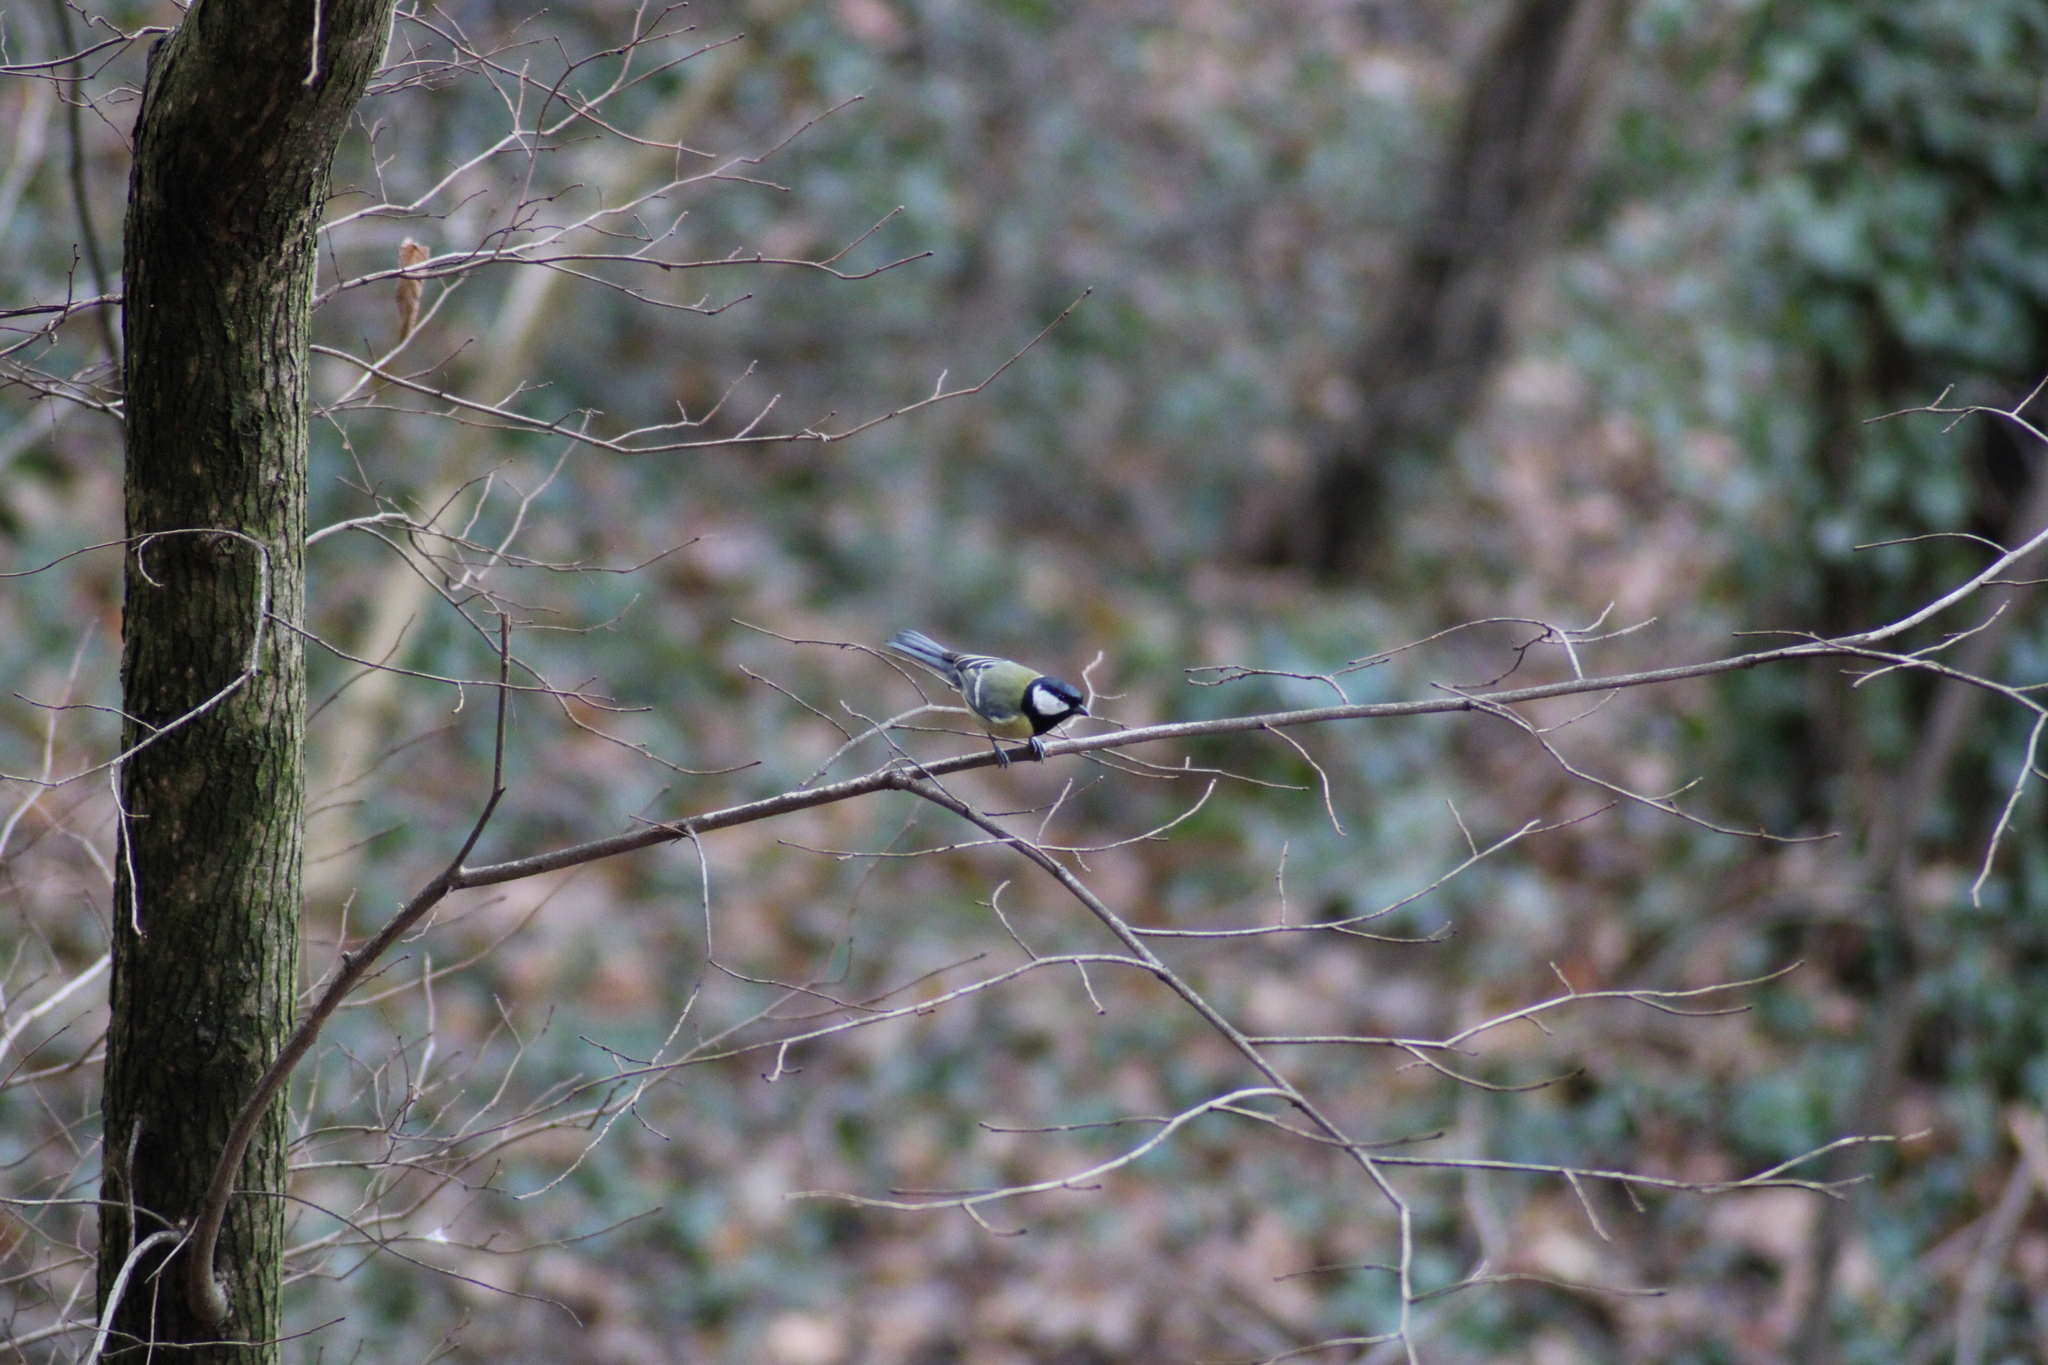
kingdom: Animalia
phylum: Chordata
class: Aves
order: Passeriformes
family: Paridae
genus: Parus
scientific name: Parus major
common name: Great tit
